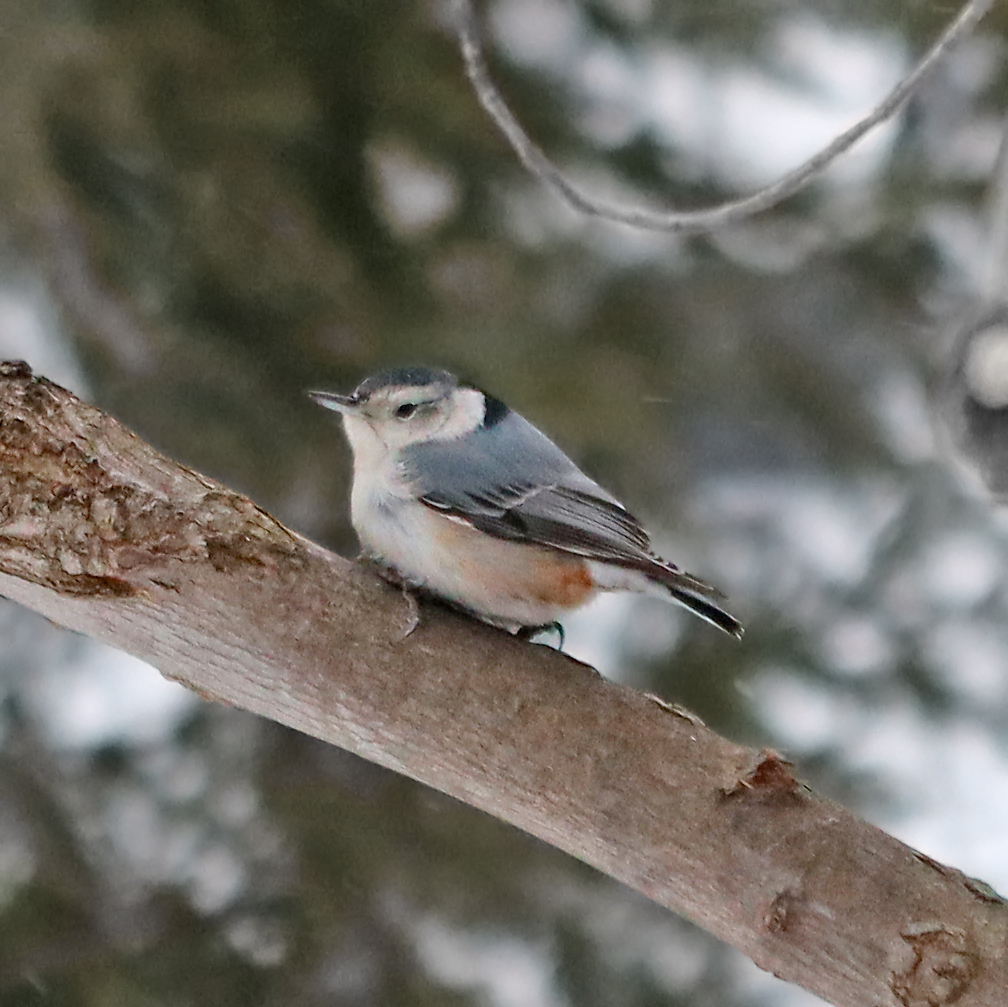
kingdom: Animalia
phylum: Chordata
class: Aves
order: Passeriformes
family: Sittidae
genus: Sitta
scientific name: Sitta carolinensis
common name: White-breasted nuthatch
